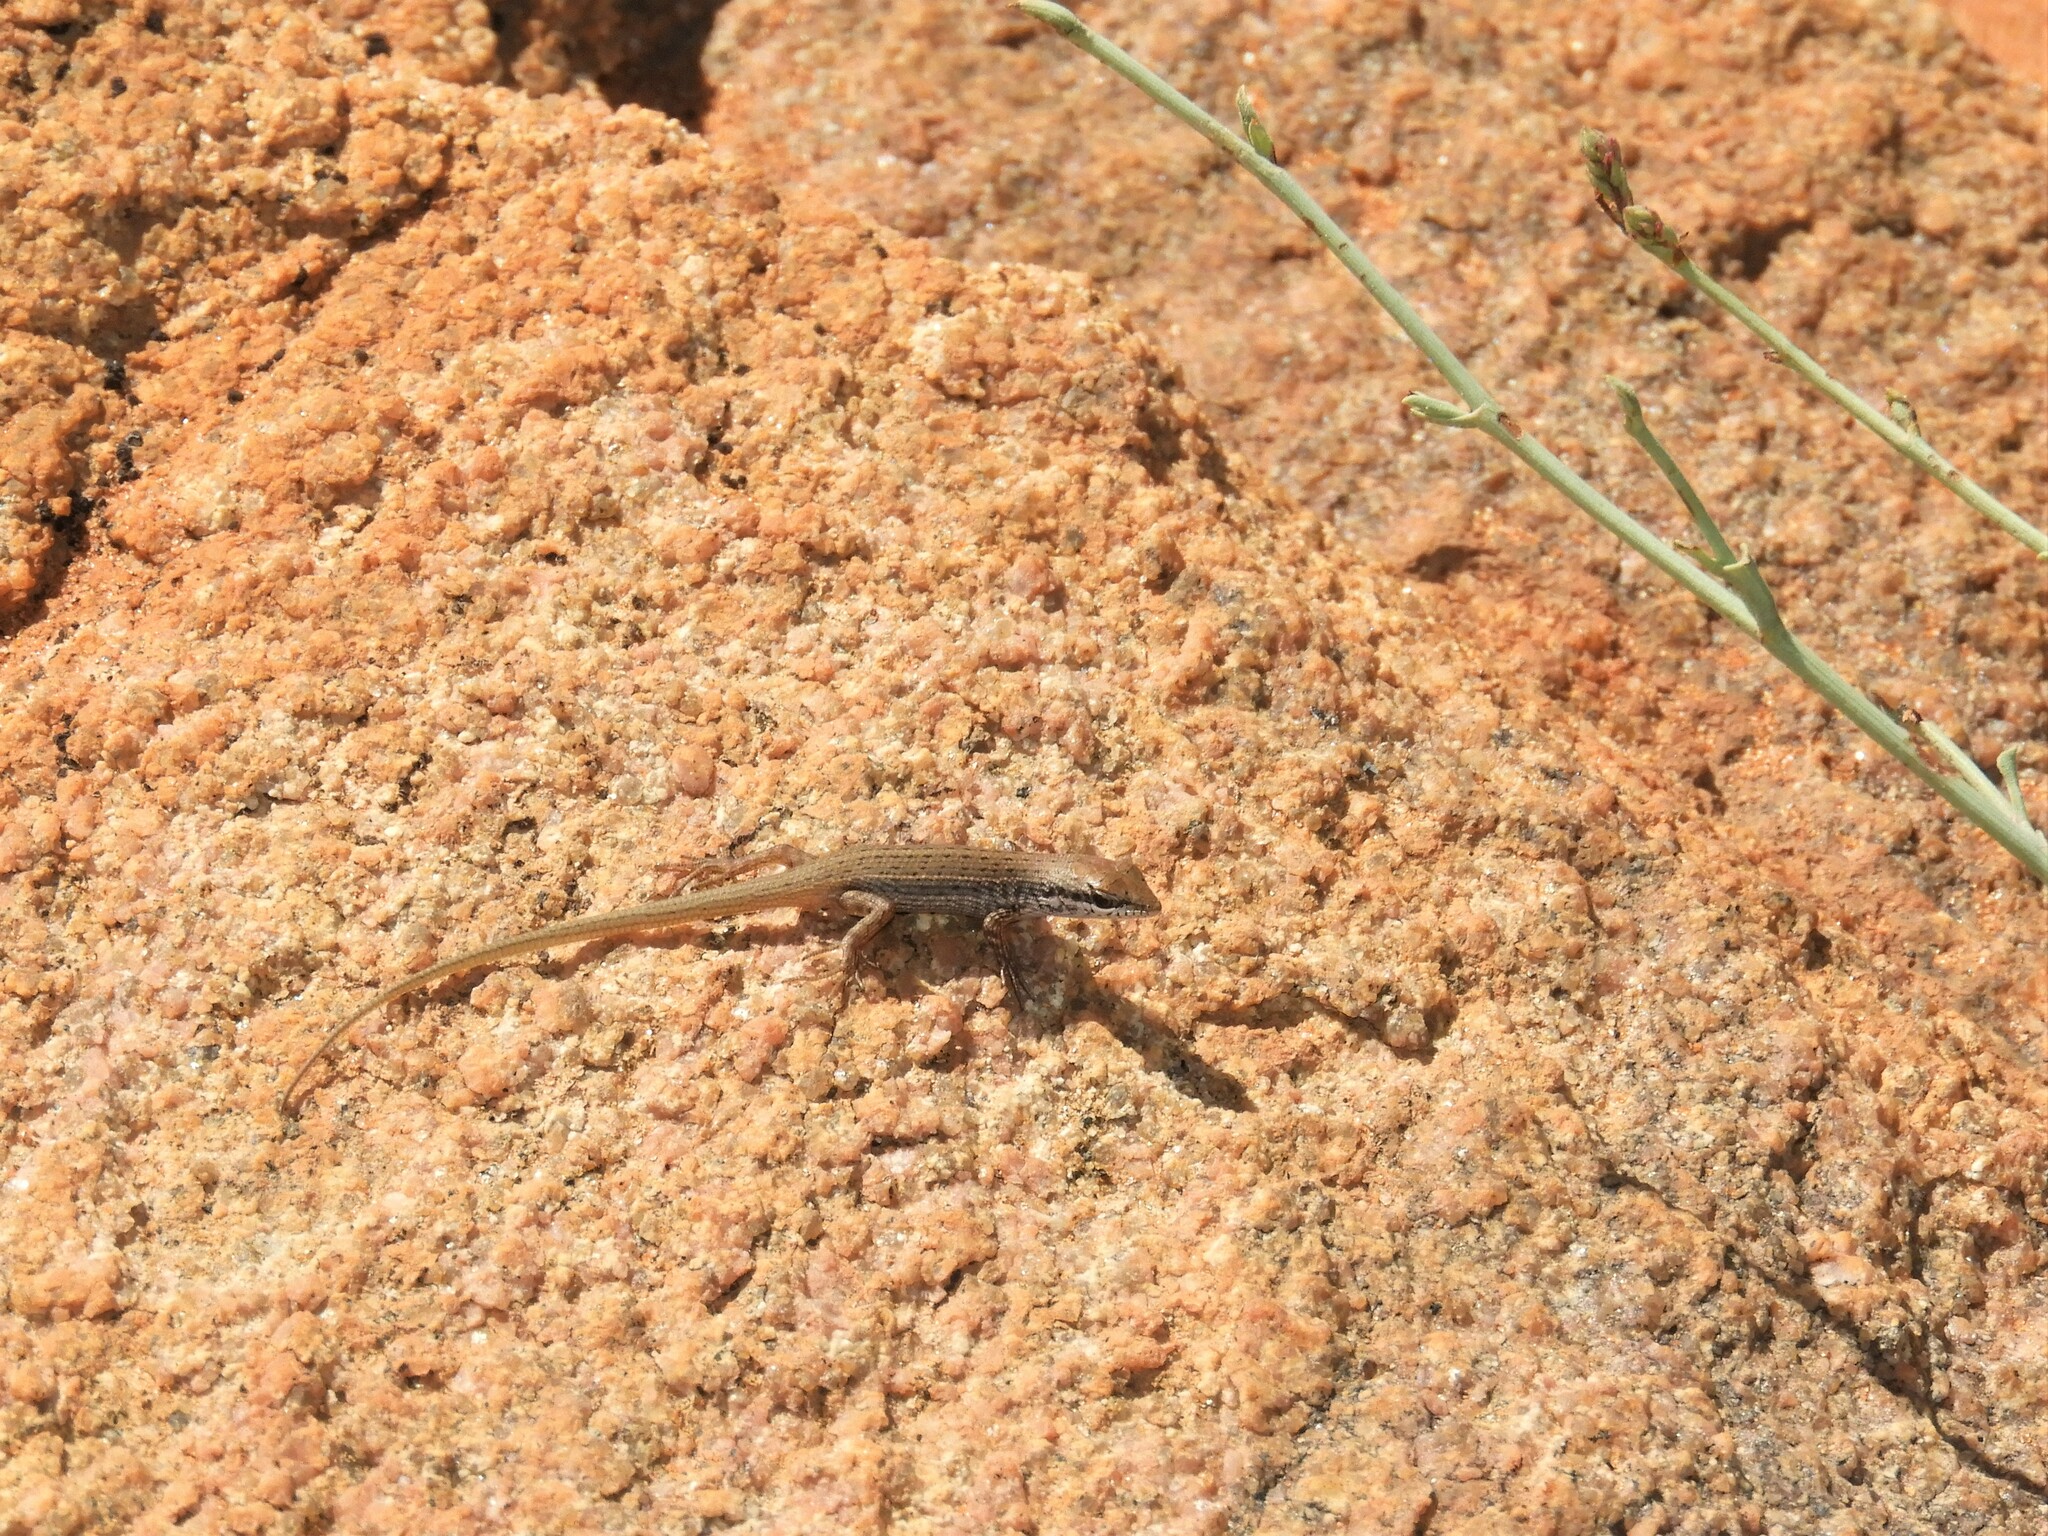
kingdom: Animalia
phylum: Chordata
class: Squamata
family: Scincidae
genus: Trachylepis
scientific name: Trachylepis variegata
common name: Variegated skink
